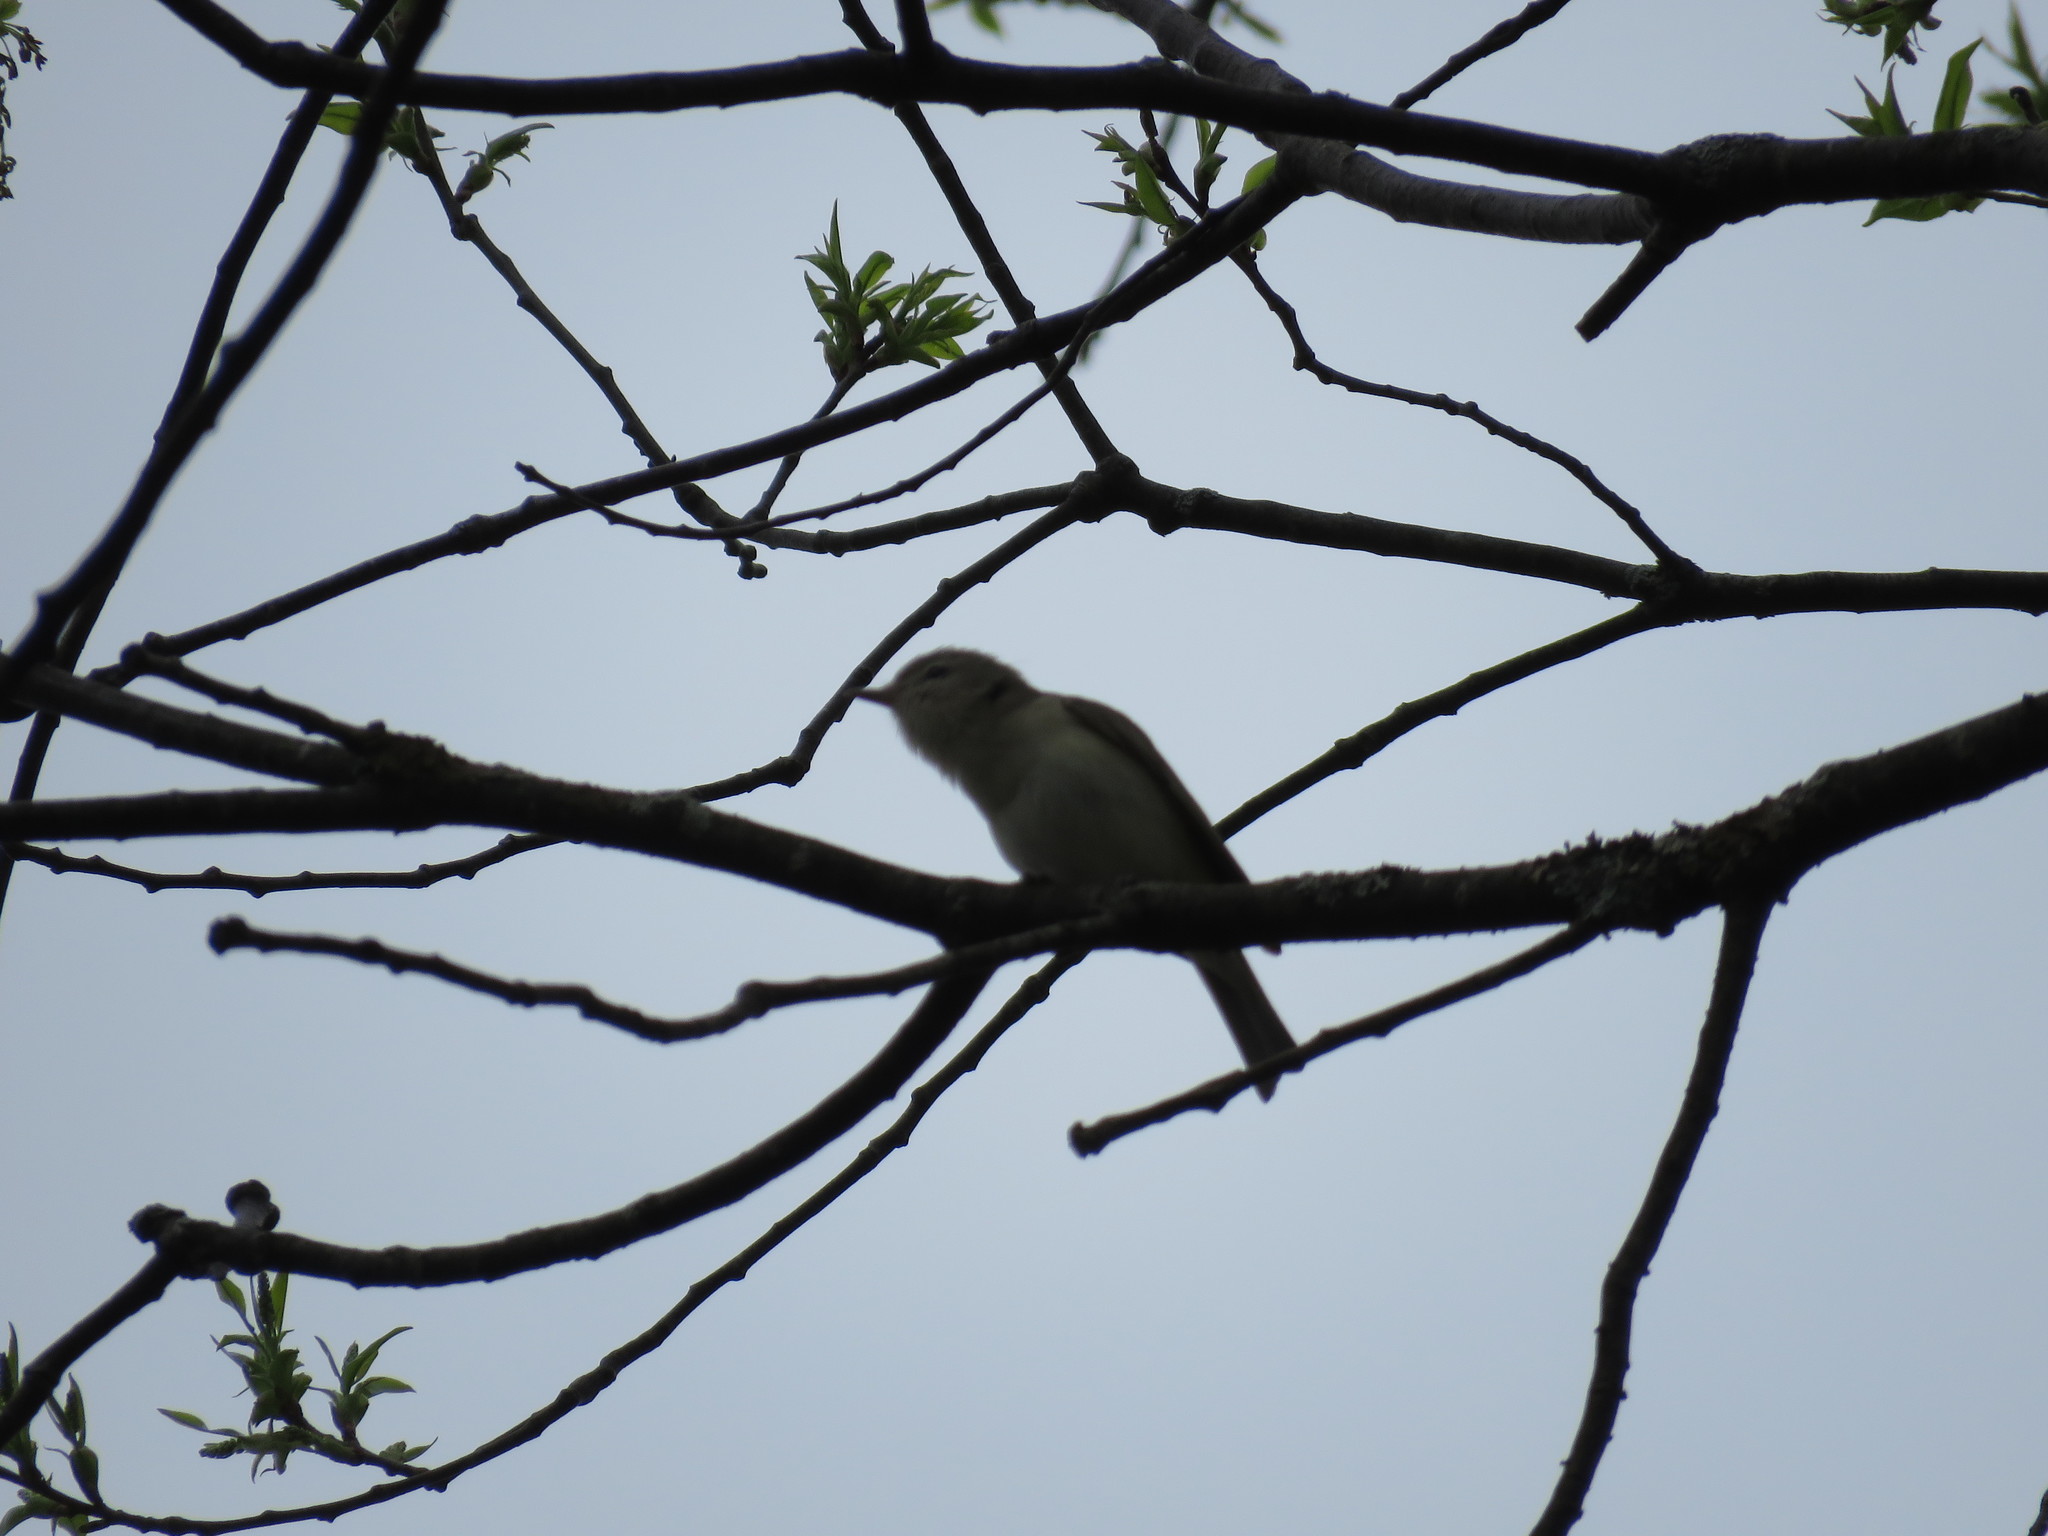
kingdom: Animalia
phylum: Chordata
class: Aves
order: Passeriformes
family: Vireonidae
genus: Vireo
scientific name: Vireo gilvus
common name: Warbling vireo
